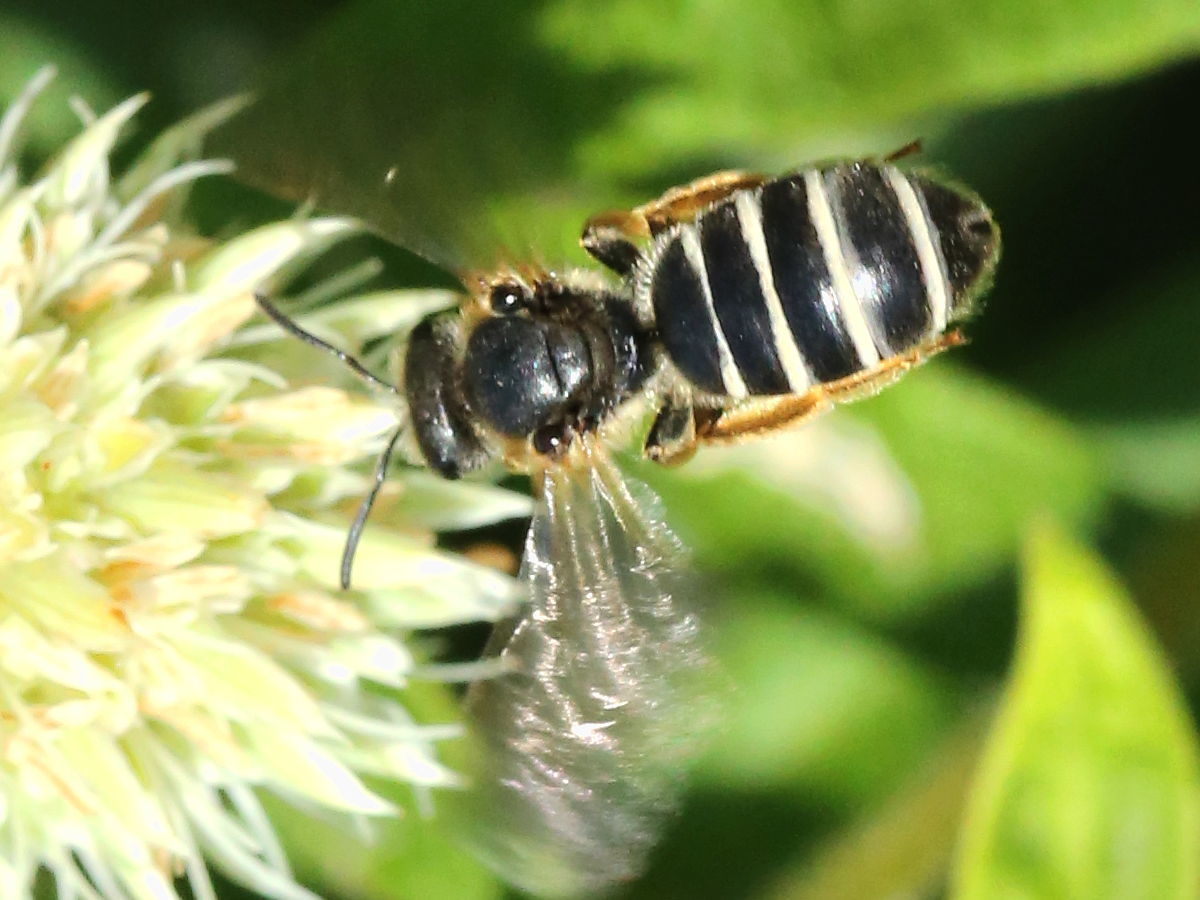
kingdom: Animalia
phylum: Arthropoda
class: Insecta
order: Hymenoptera
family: Halictidae
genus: Halictus
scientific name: Halictus rubicundus
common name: Orange-legged furrow bee
